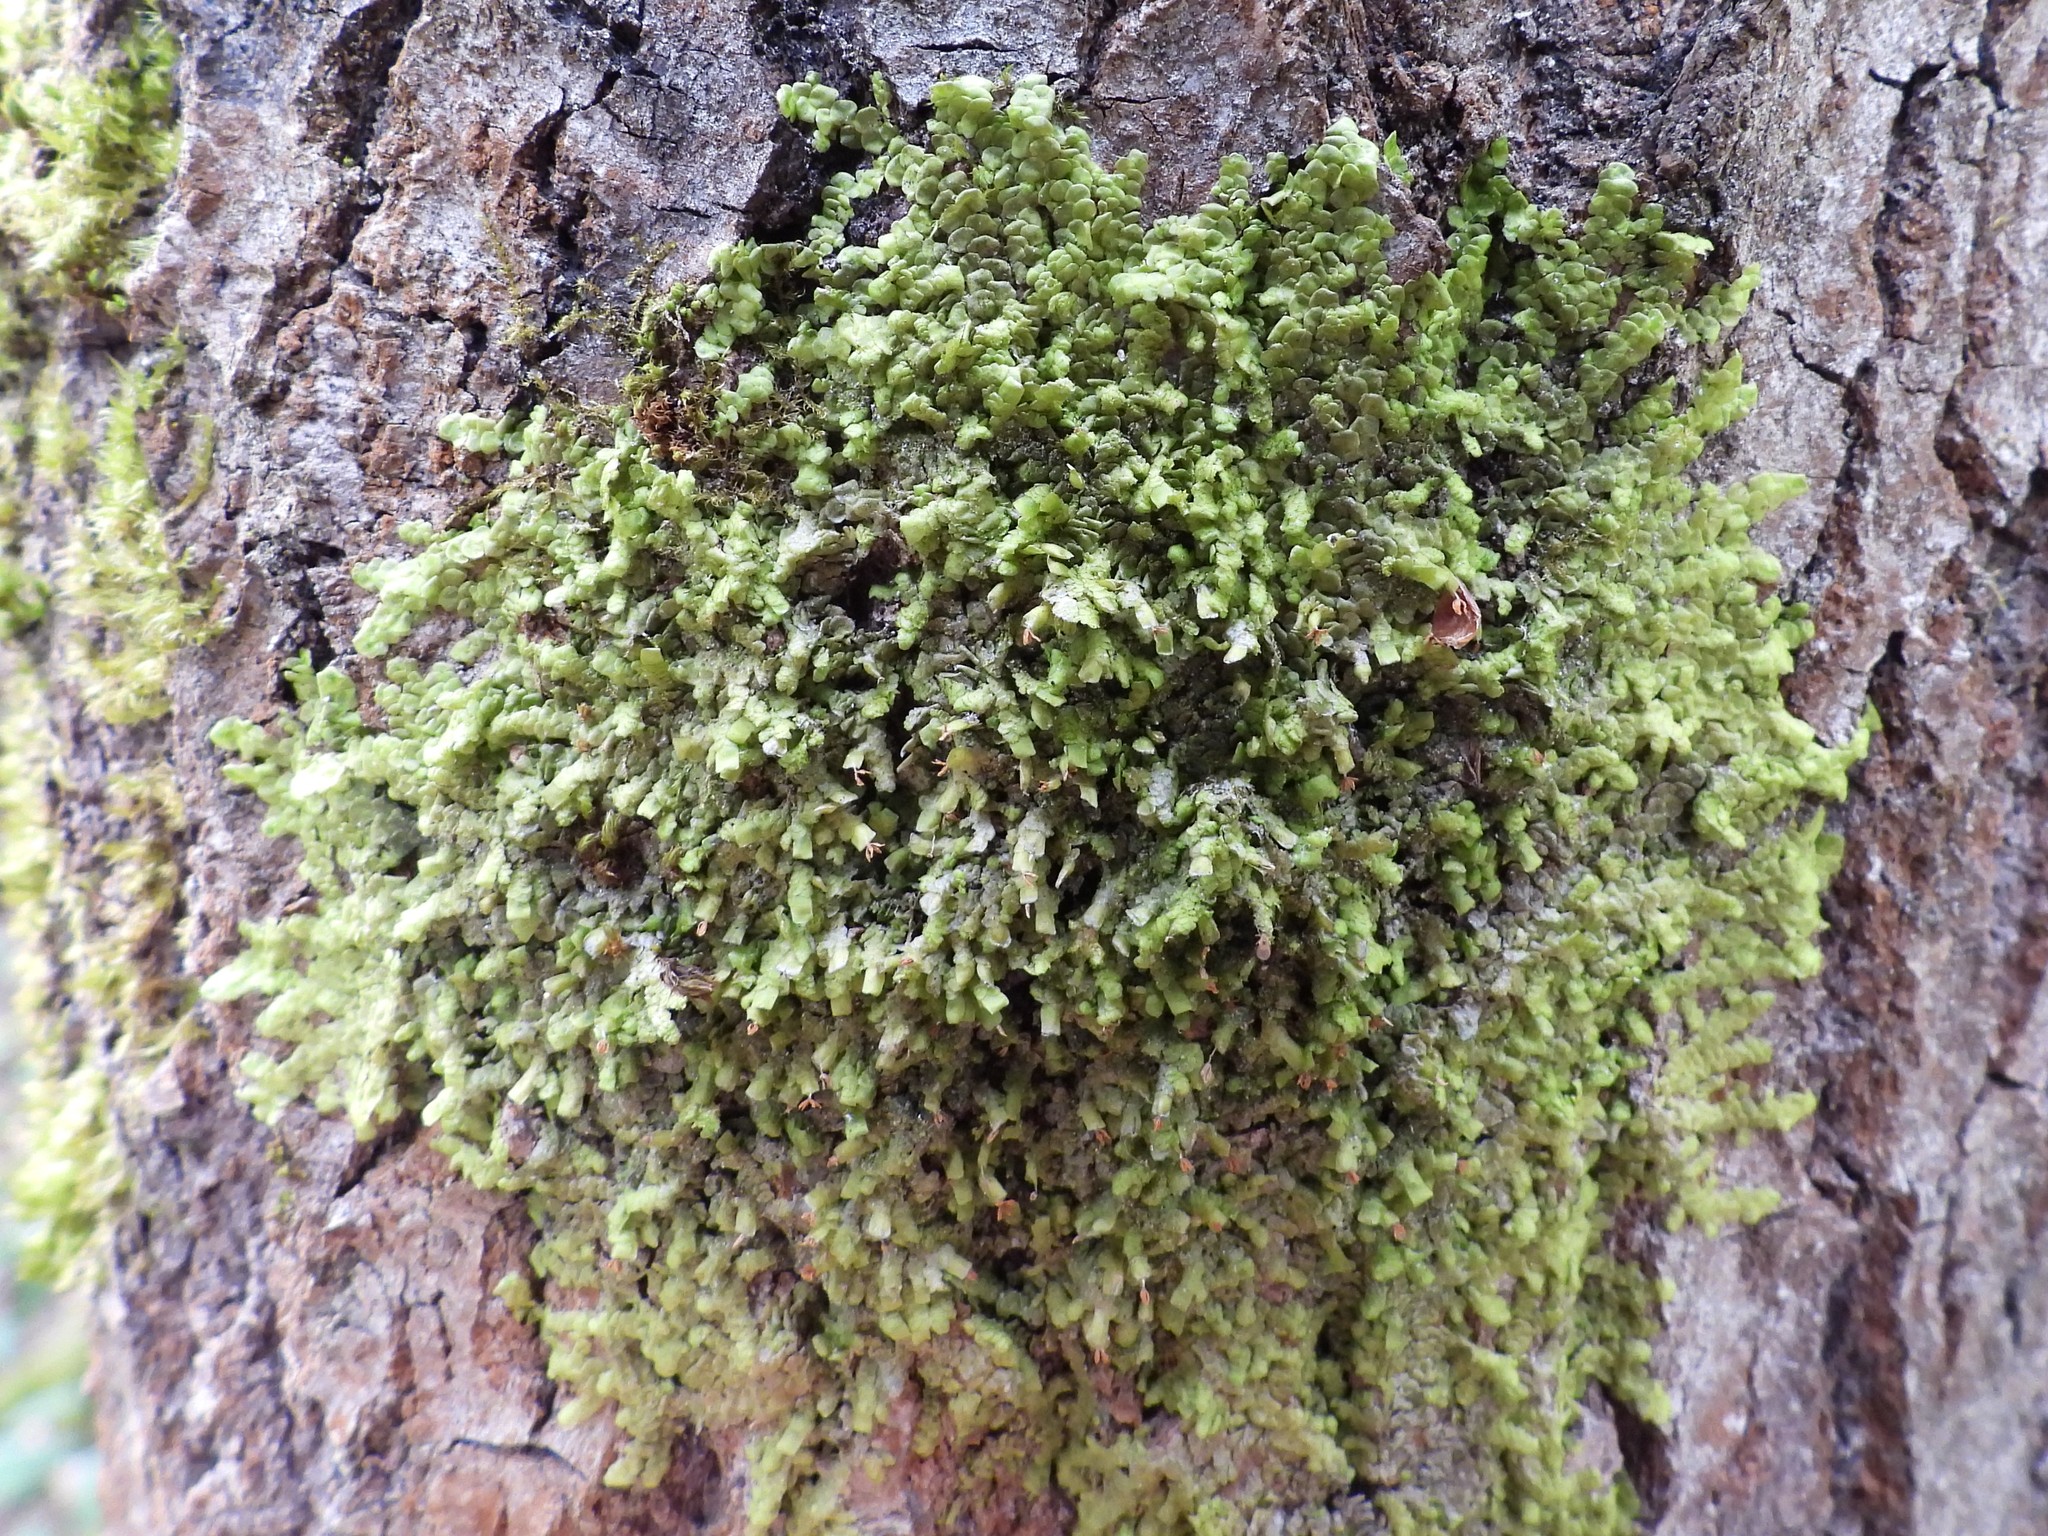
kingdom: Plantae
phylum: Marchantiophyta
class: Jungermanniopsida
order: Porellales
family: Radulaceae
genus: Radula
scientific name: Radula complanata
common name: Flat-leaved scalewort
